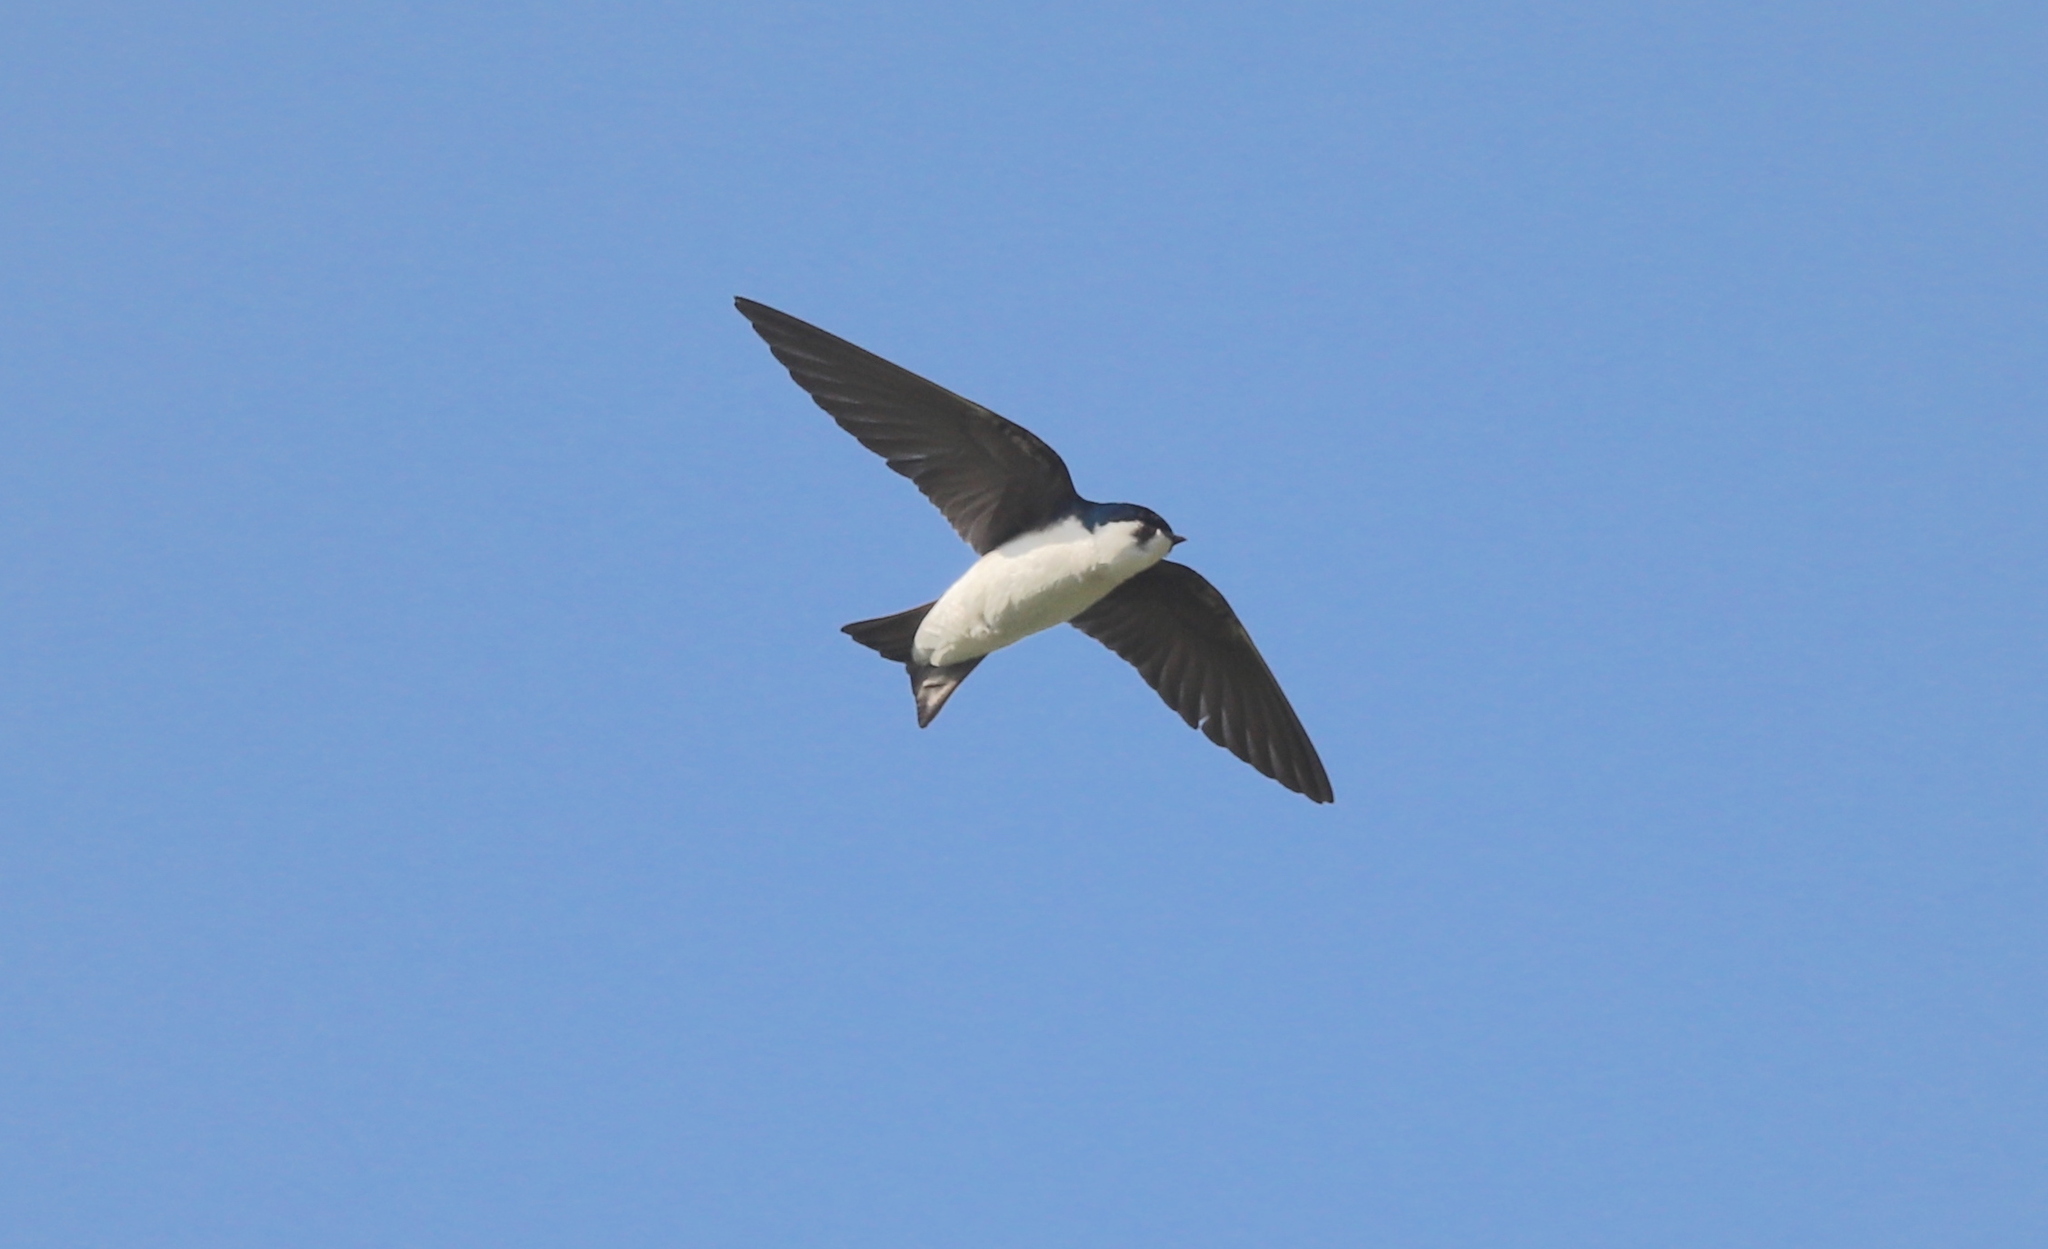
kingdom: Animalia
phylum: Chordata
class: Aves
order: Passeriformes
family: Hirundinidae
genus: Tachycineta
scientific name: Tachycineta bicolor
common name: Tree swallow
